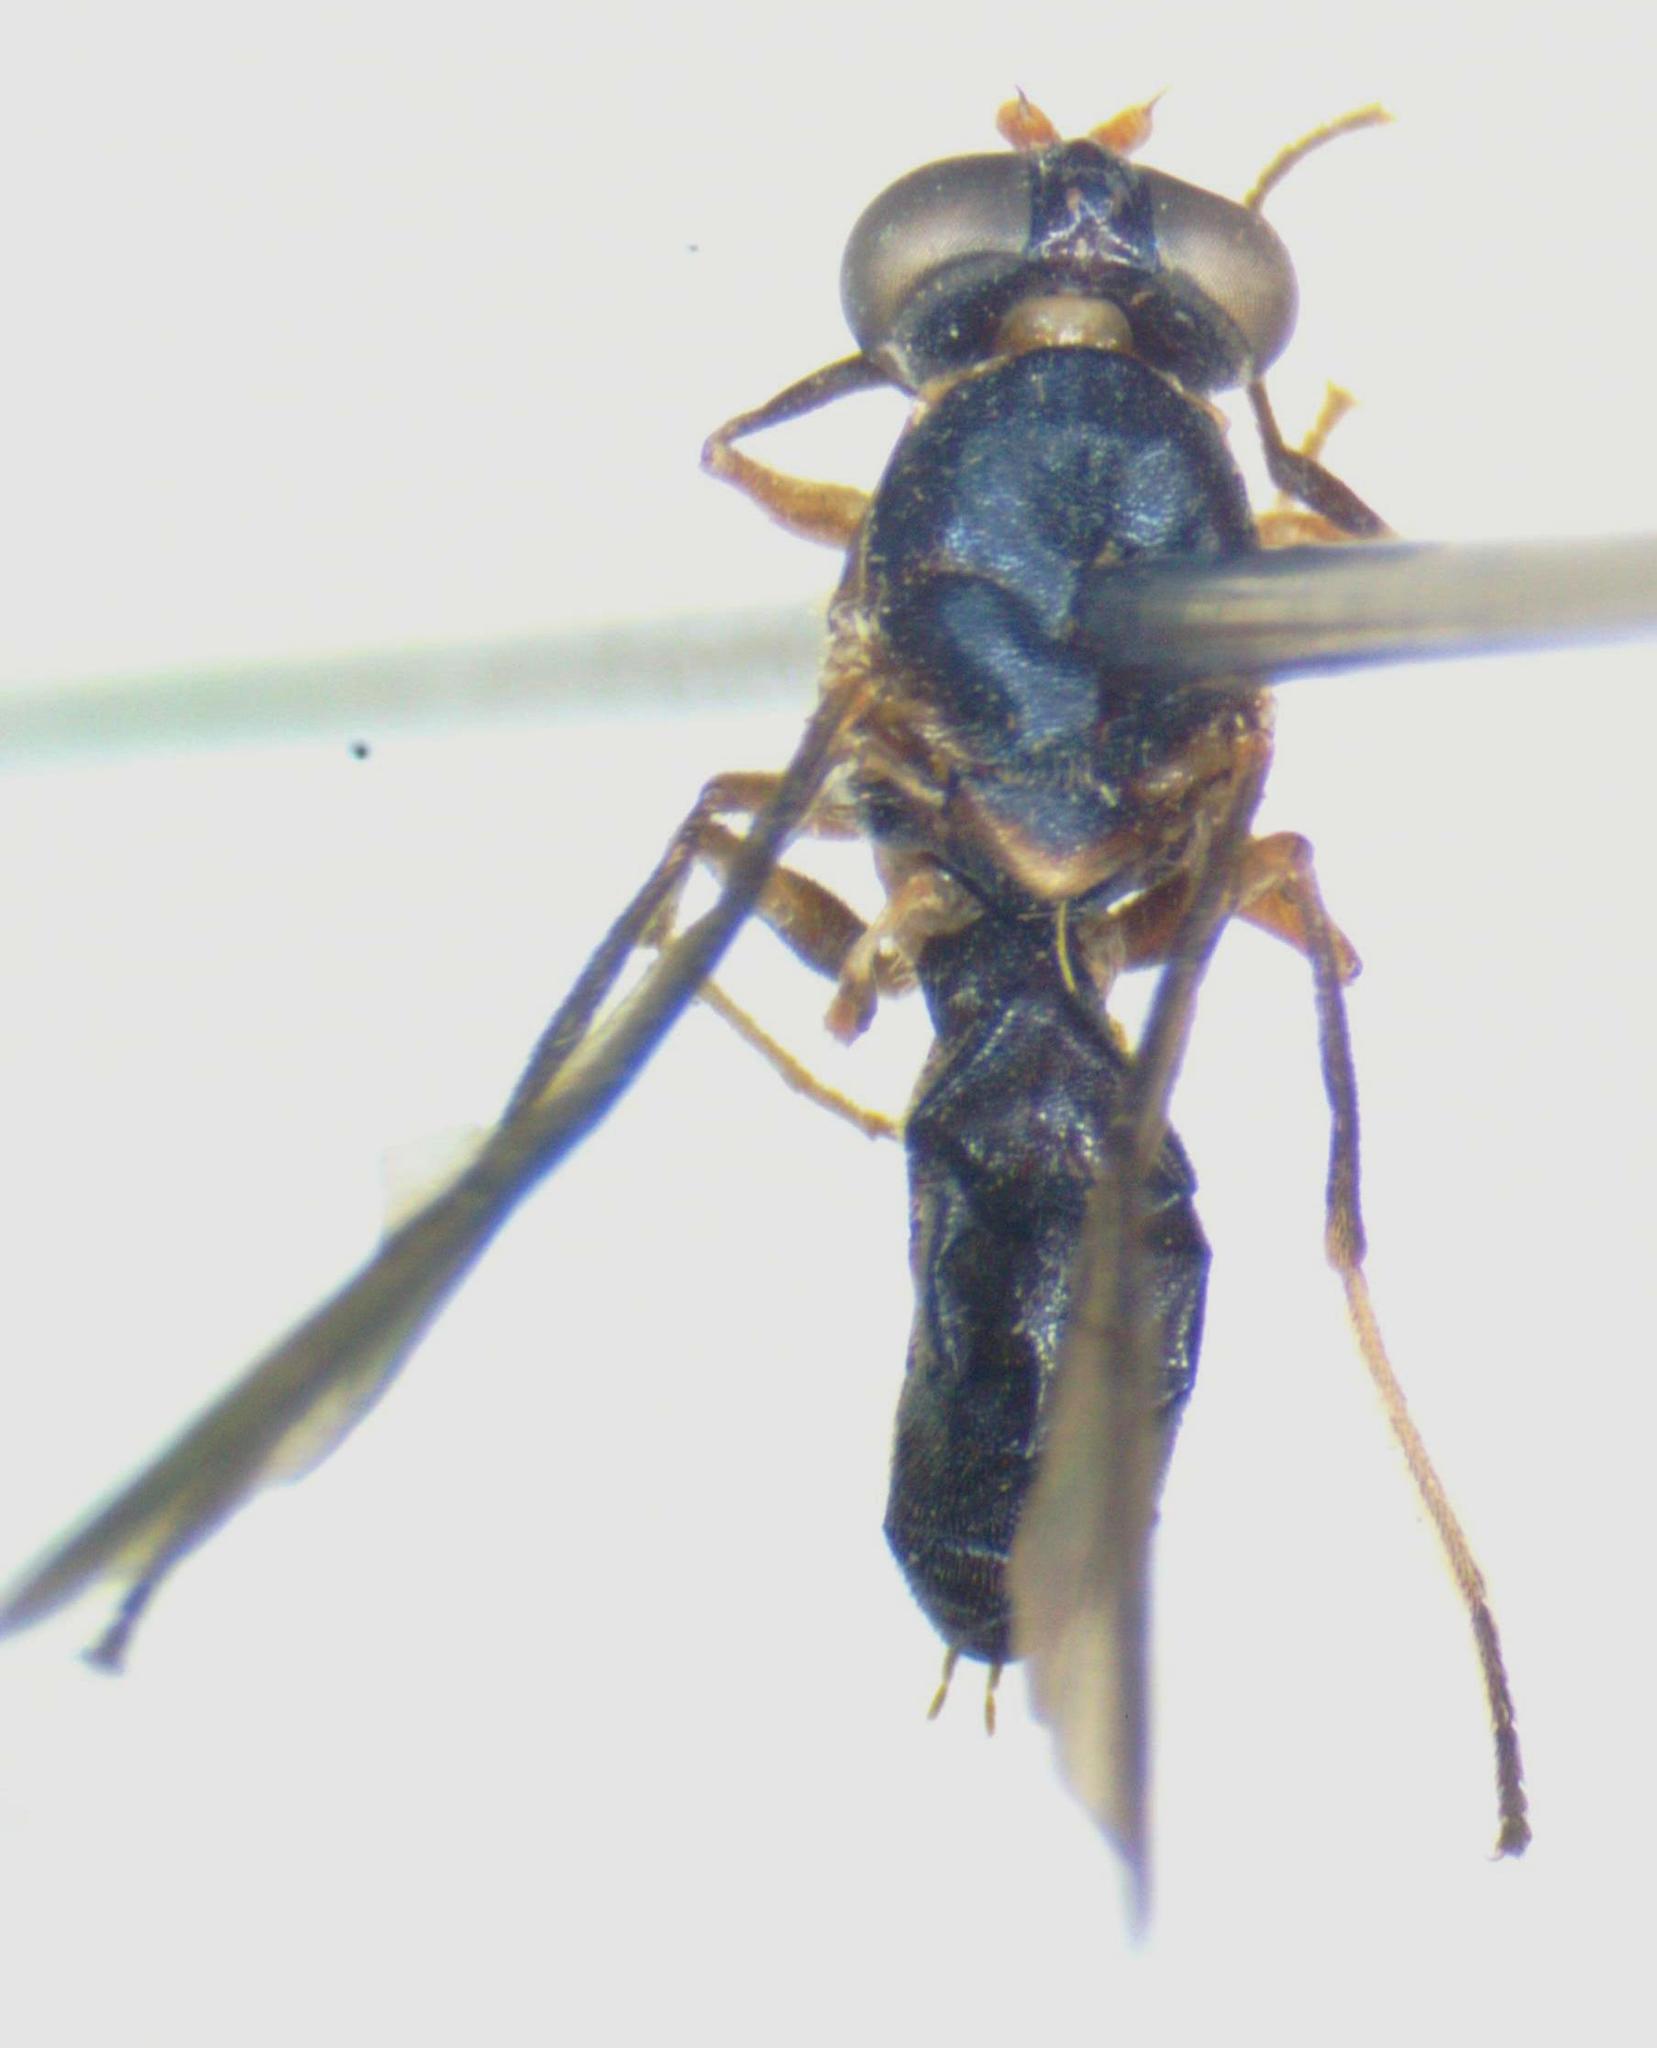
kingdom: Animalia
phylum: Arthropoda
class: Insecta
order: Diptera
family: Stratiomyidae
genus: Merosargus
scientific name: Merosargus anticus
